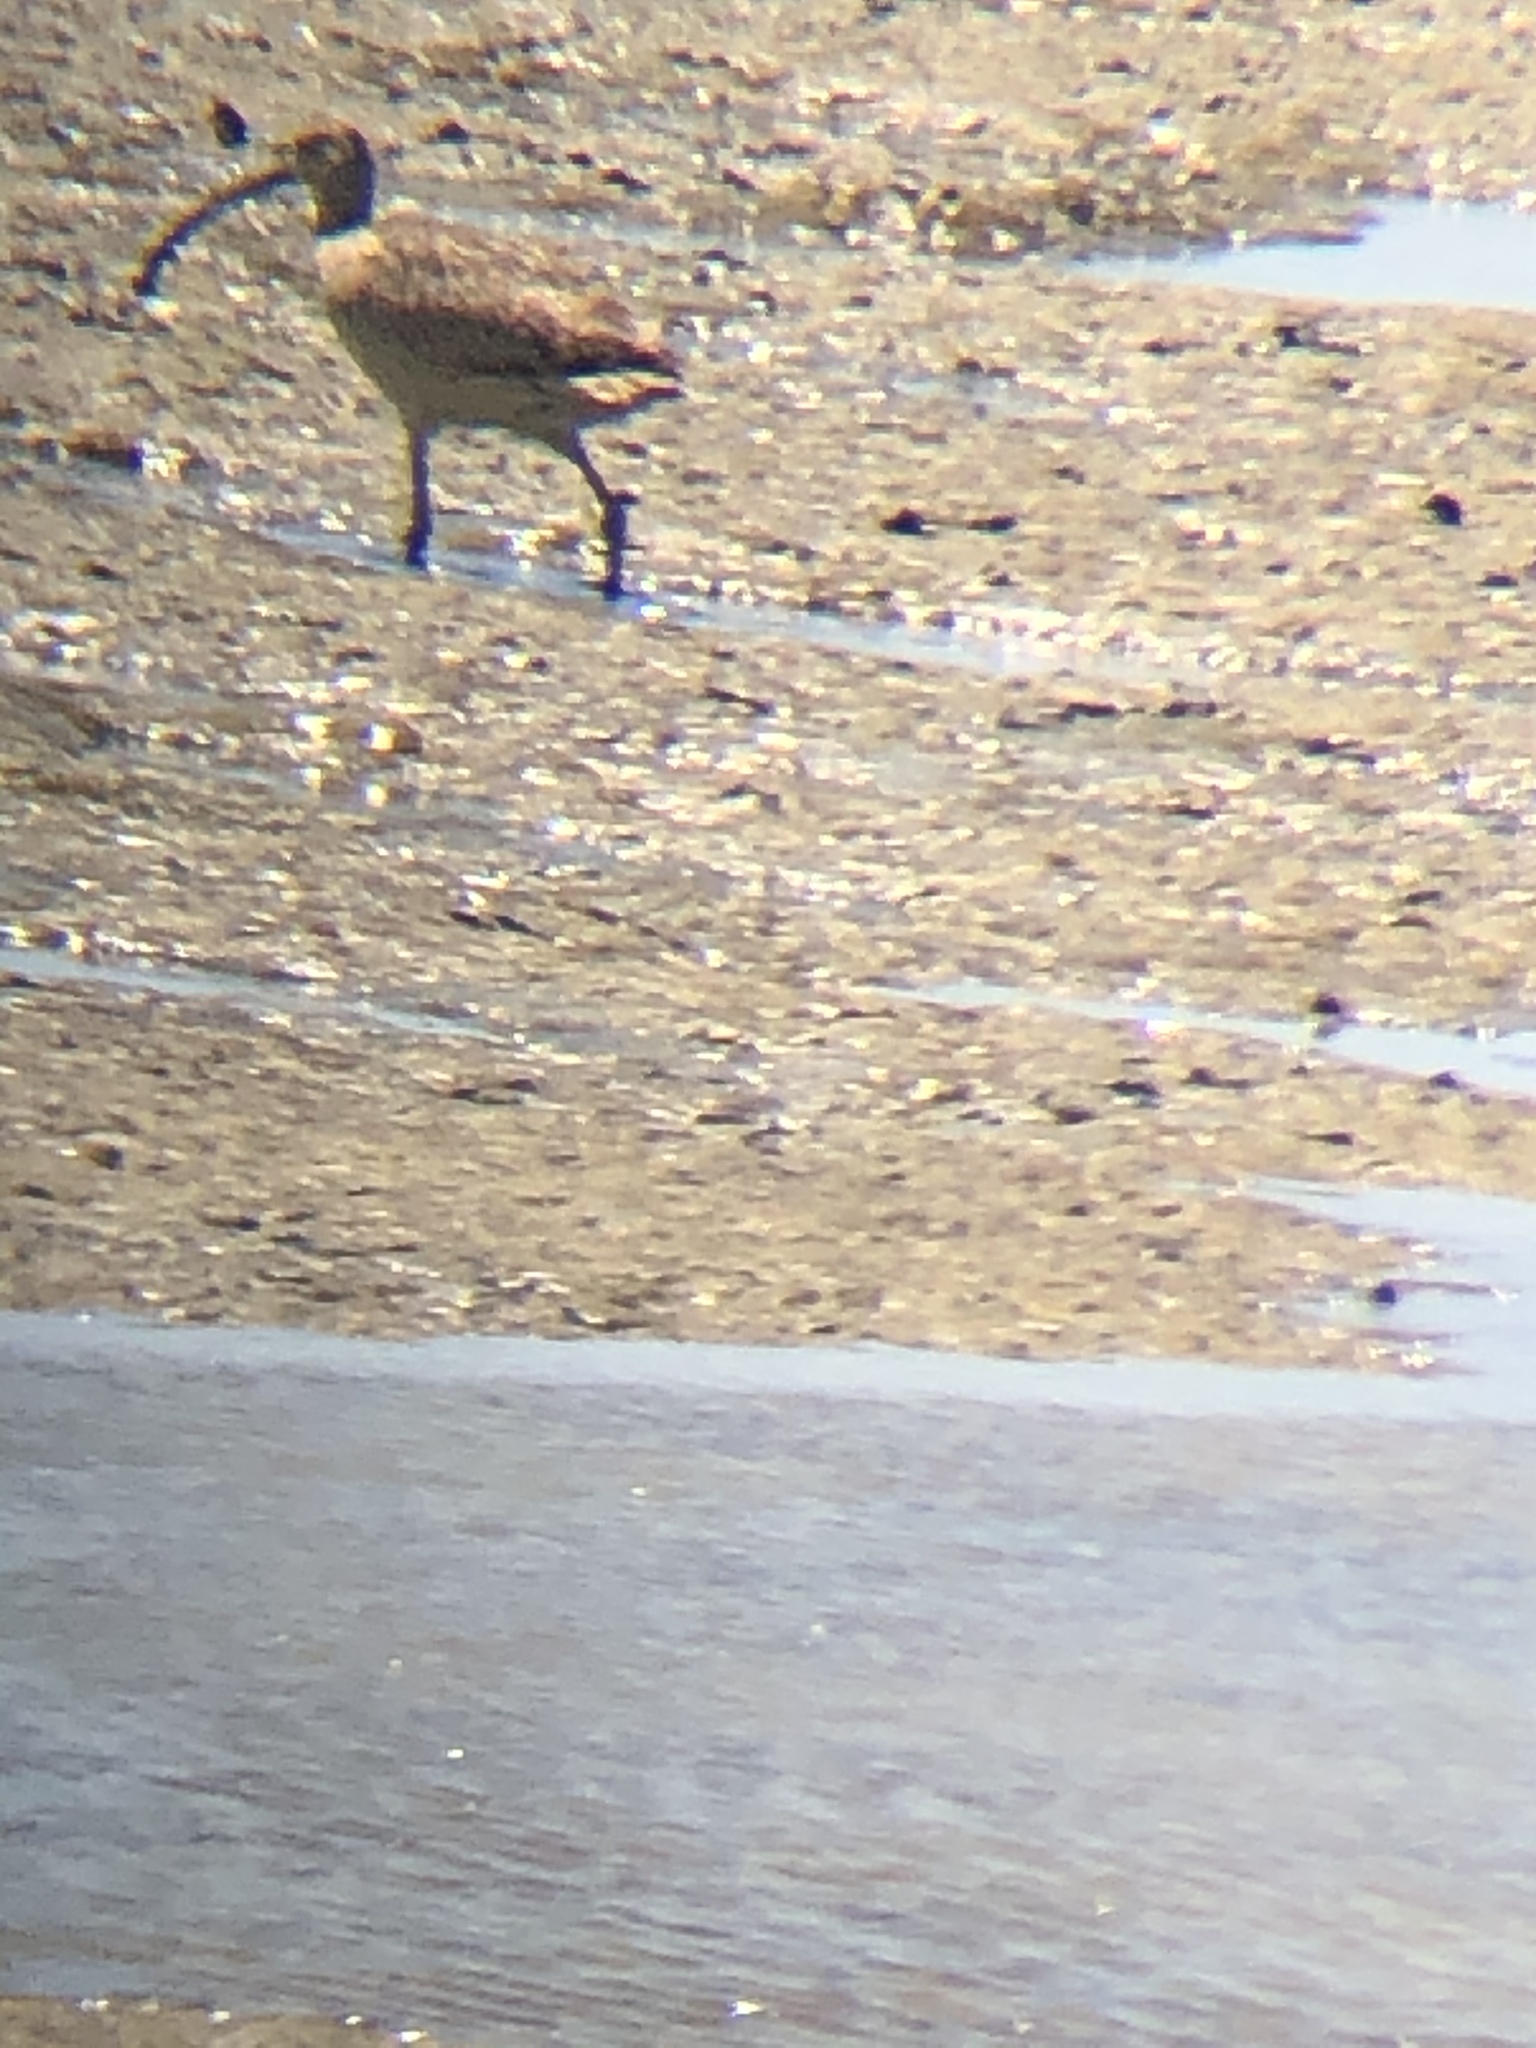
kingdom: Animalia
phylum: Chordata
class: Aves
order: Charadriiformes
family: Scolopacidae
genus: Numenius
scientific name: Numenius americanus
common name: Long-billed curlew
